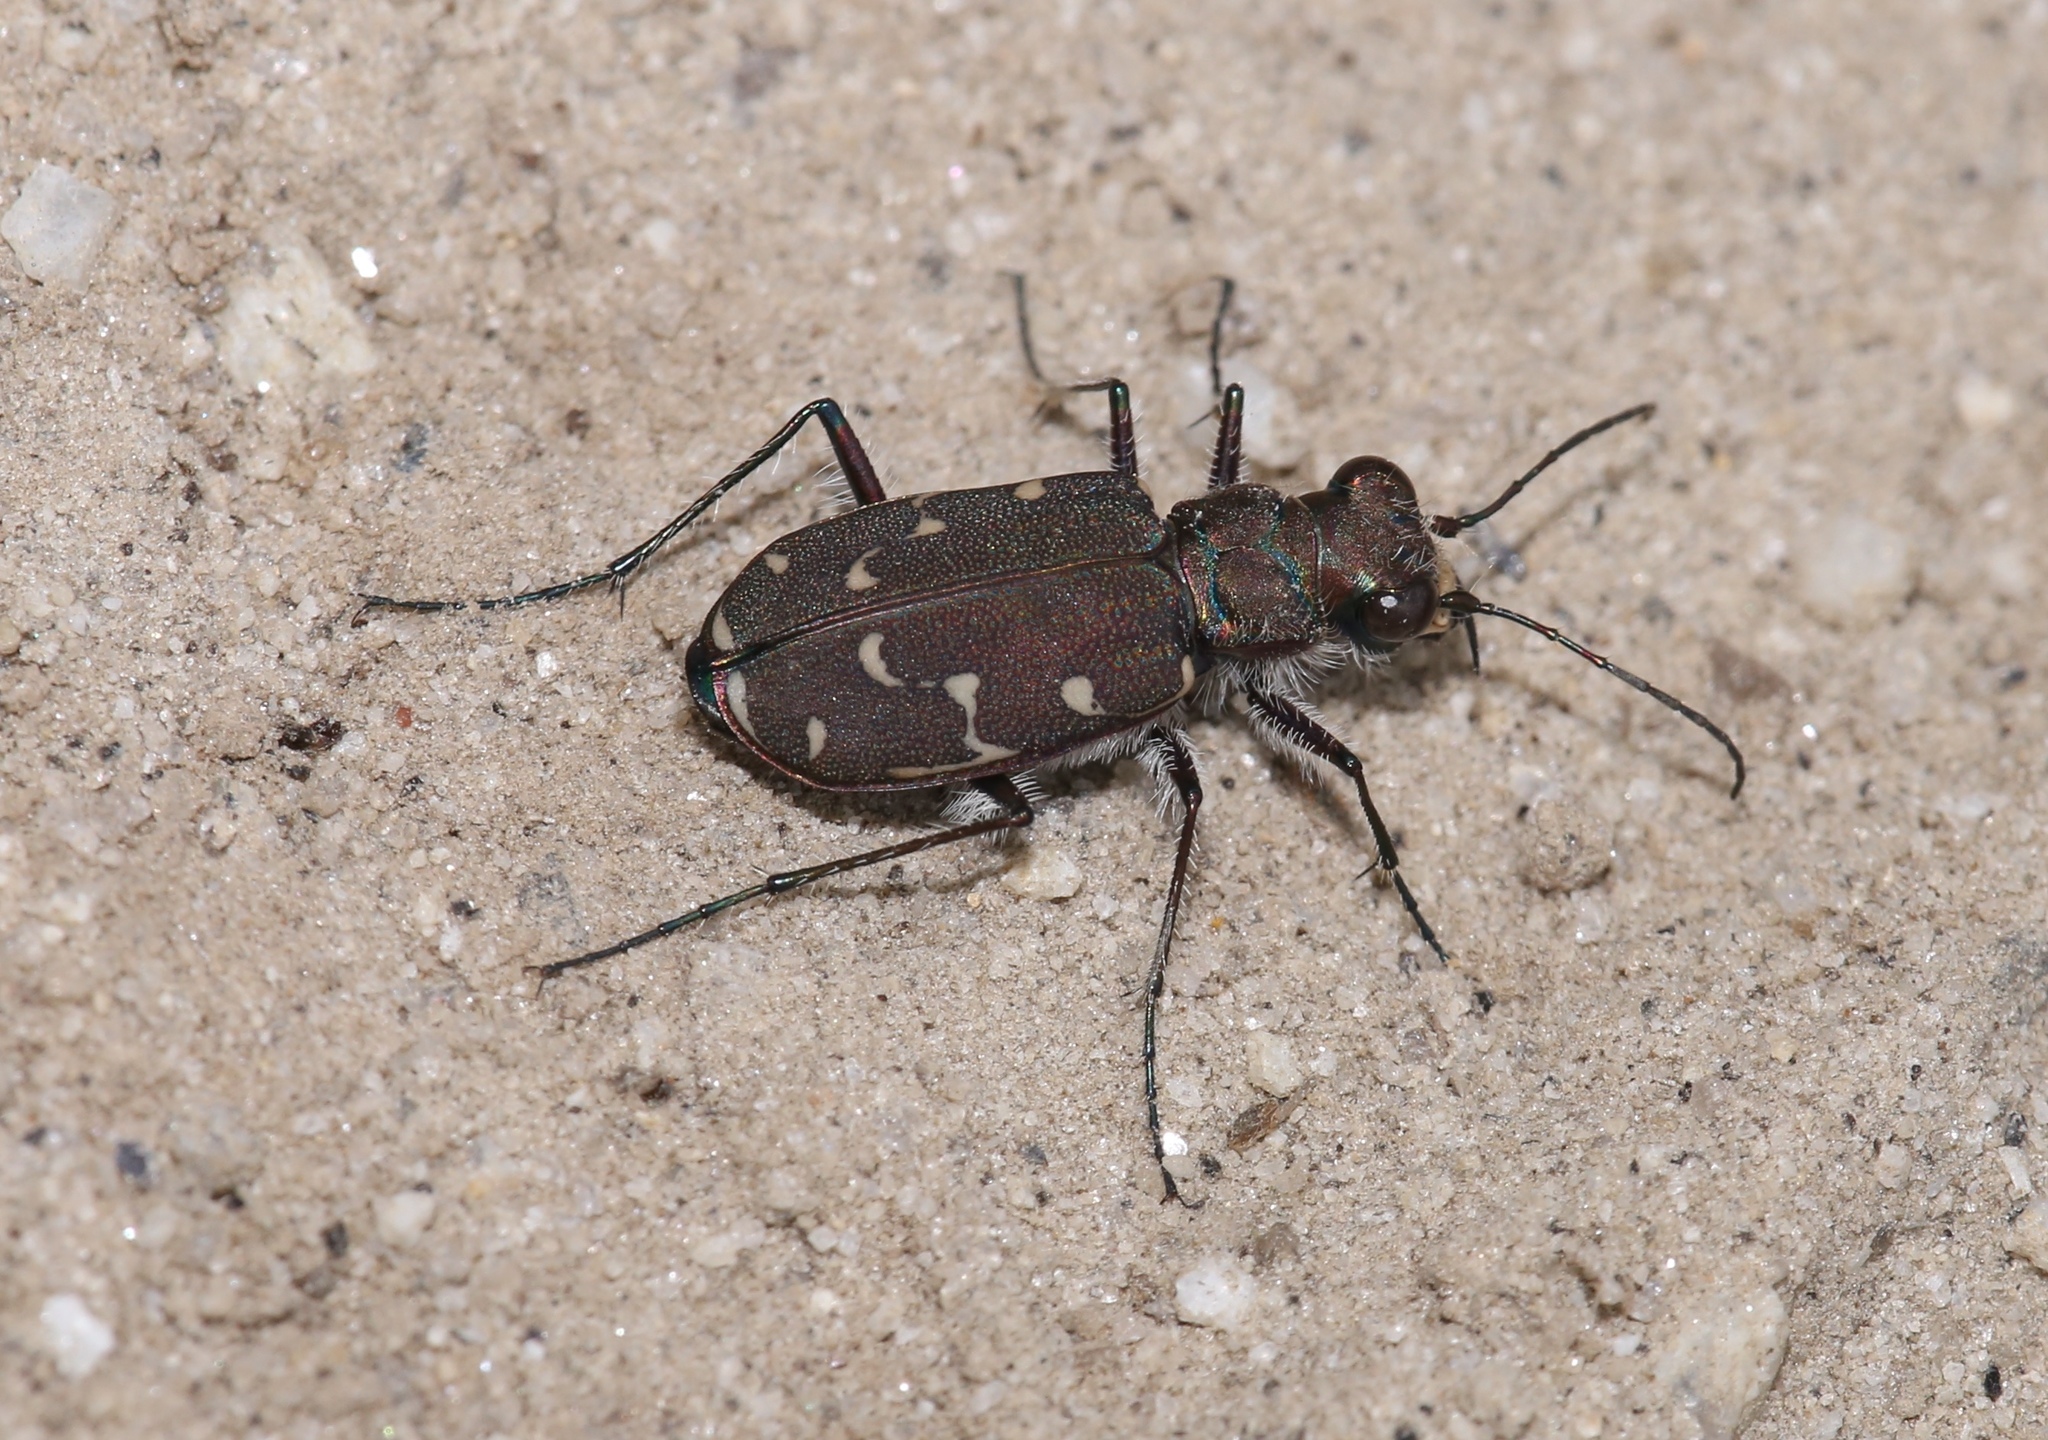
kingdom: Animalia
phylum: Arthropoda
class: Insecta
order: Coleoptera
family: Carabidae
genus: Cicindela
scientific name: Cicindela duodecimguttata
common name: Twelve-spotted tiger beetle
